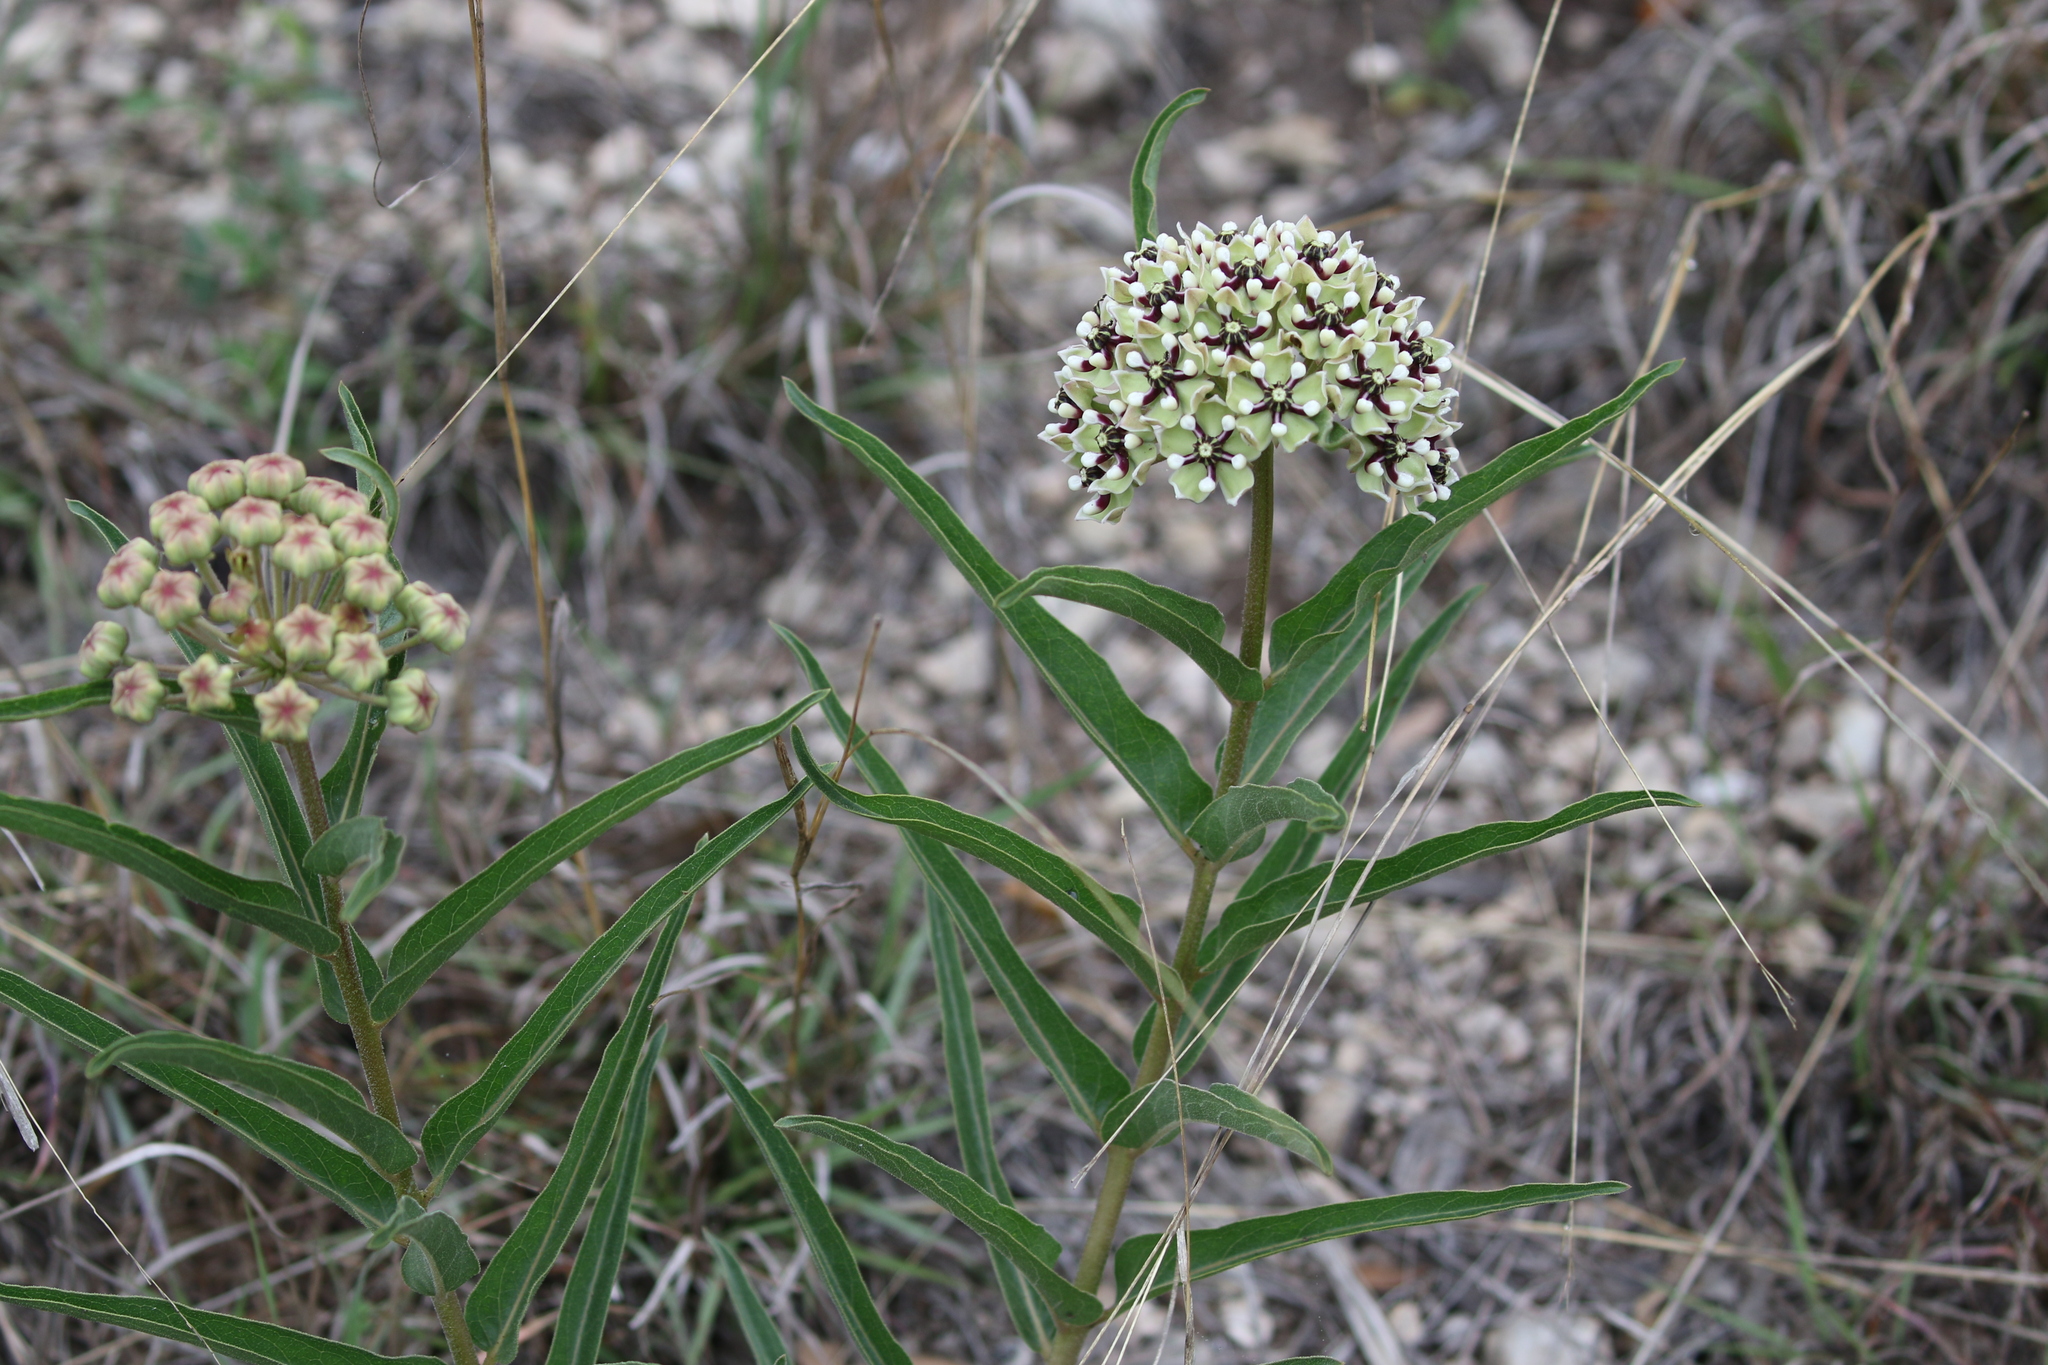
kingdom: Plantae
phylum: Tracheophyta
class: Magnoliopsida
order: Gentianales
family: Apocynaceae
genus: Asclepias
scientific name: Asclepias asperula
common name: Antelope horns
